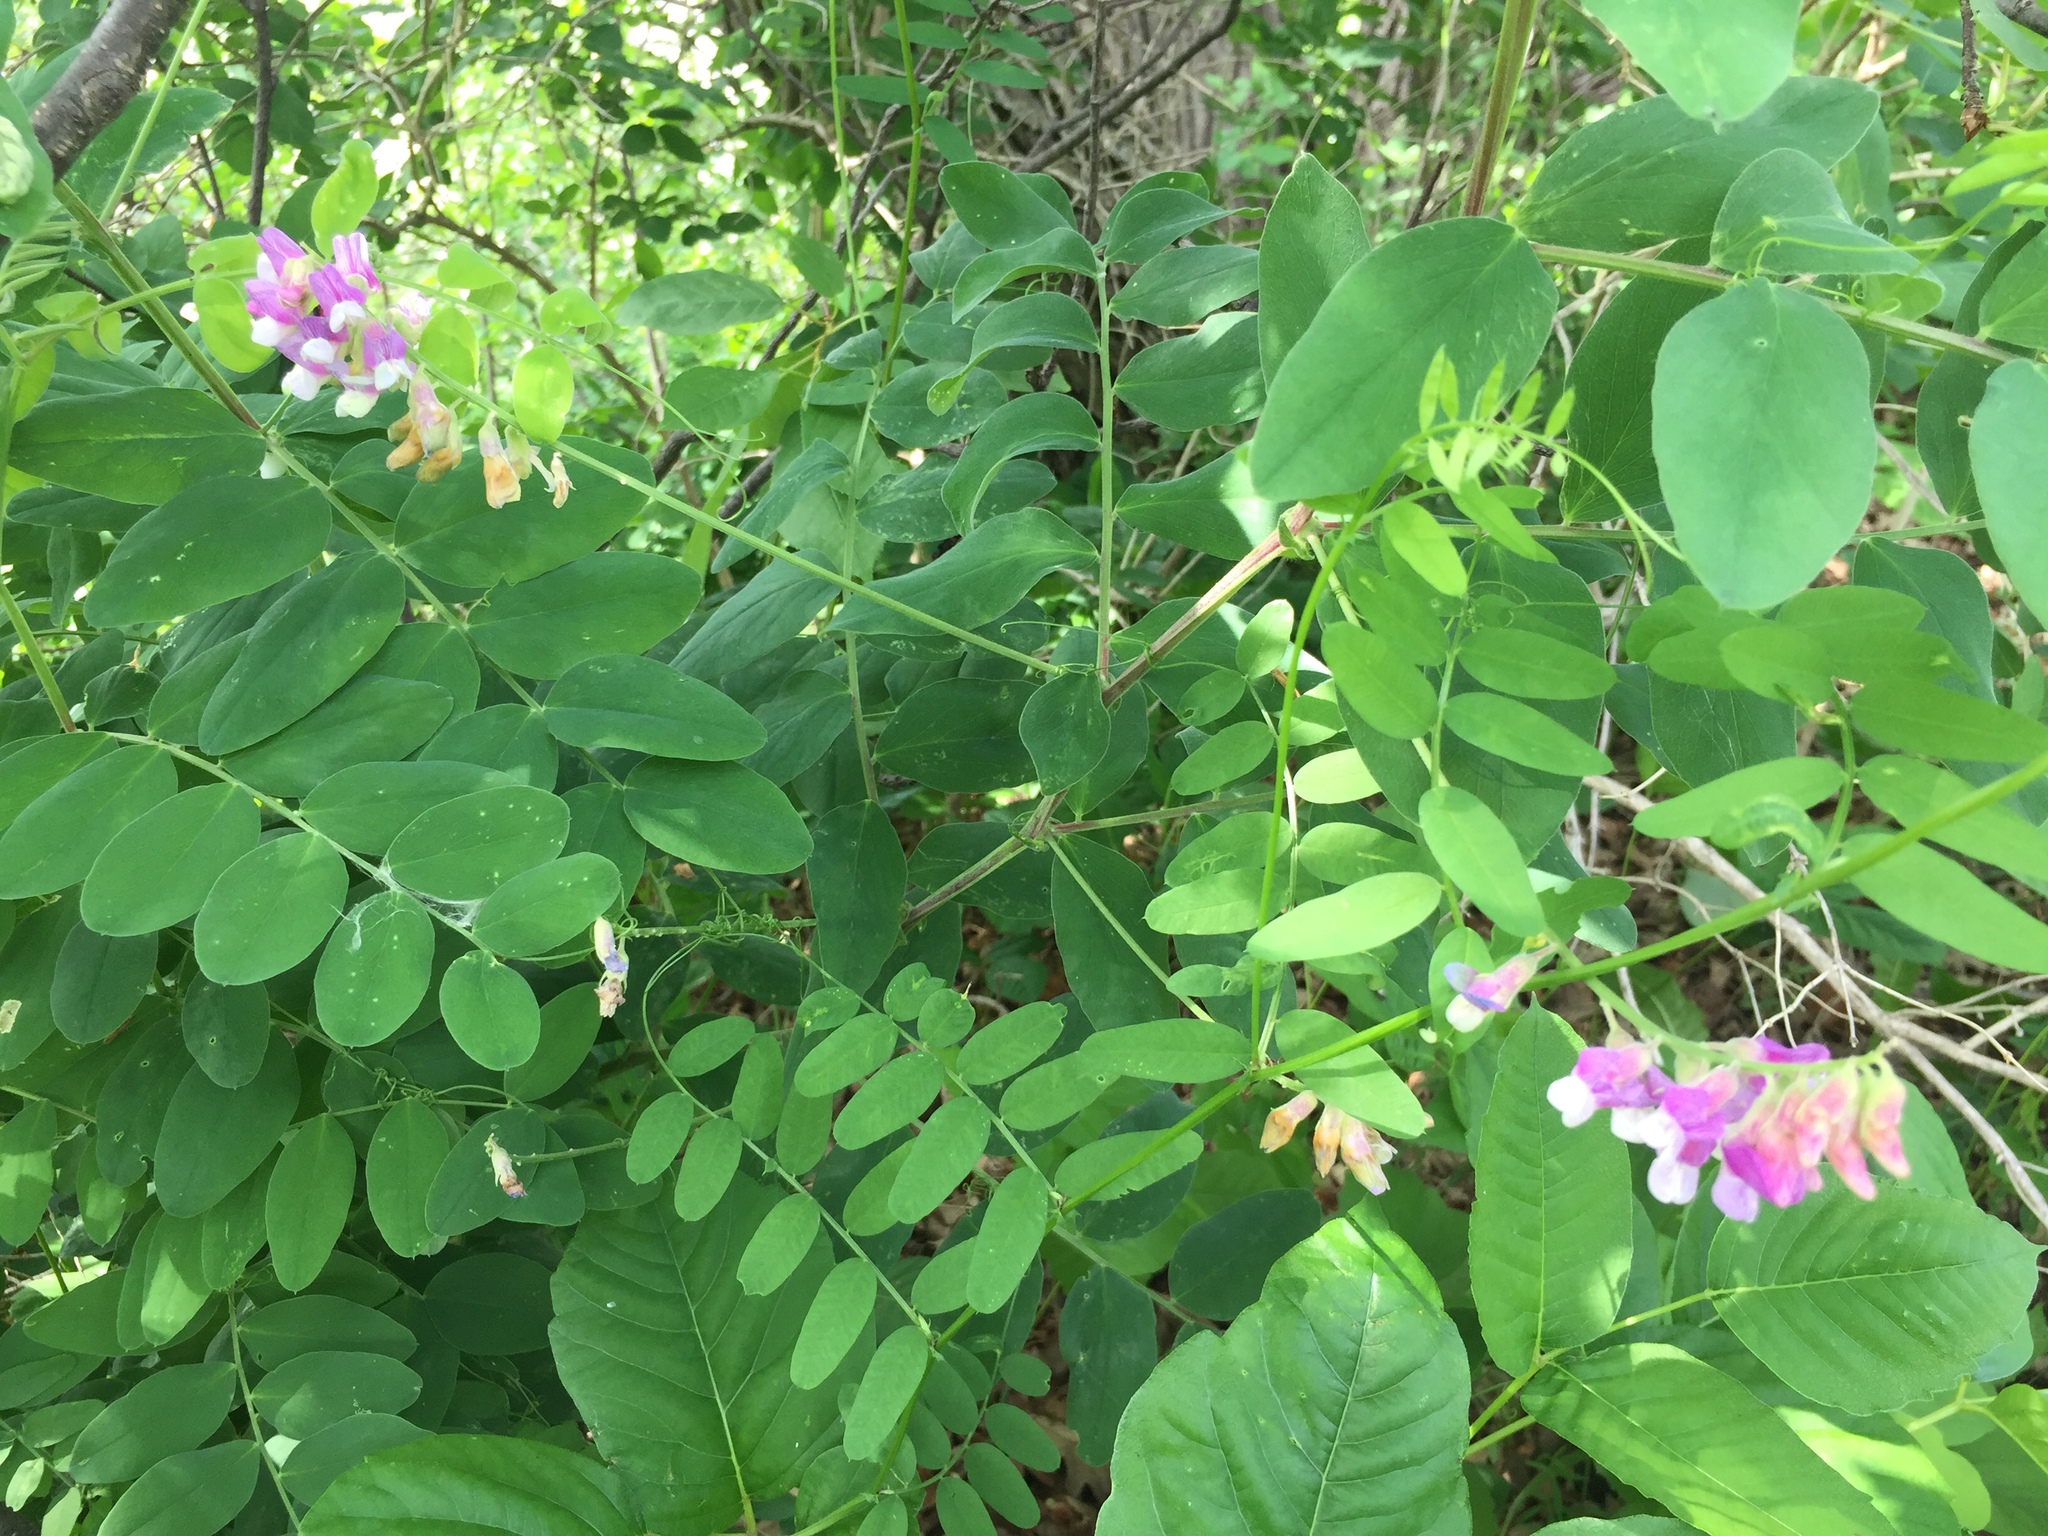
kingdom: Plantae
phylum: Tracheophyta
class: Magnoliopsida
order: Fabales
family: Fabaceae
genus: Lathyrus
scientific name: Lathyrus venosus
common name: Forest-pea
